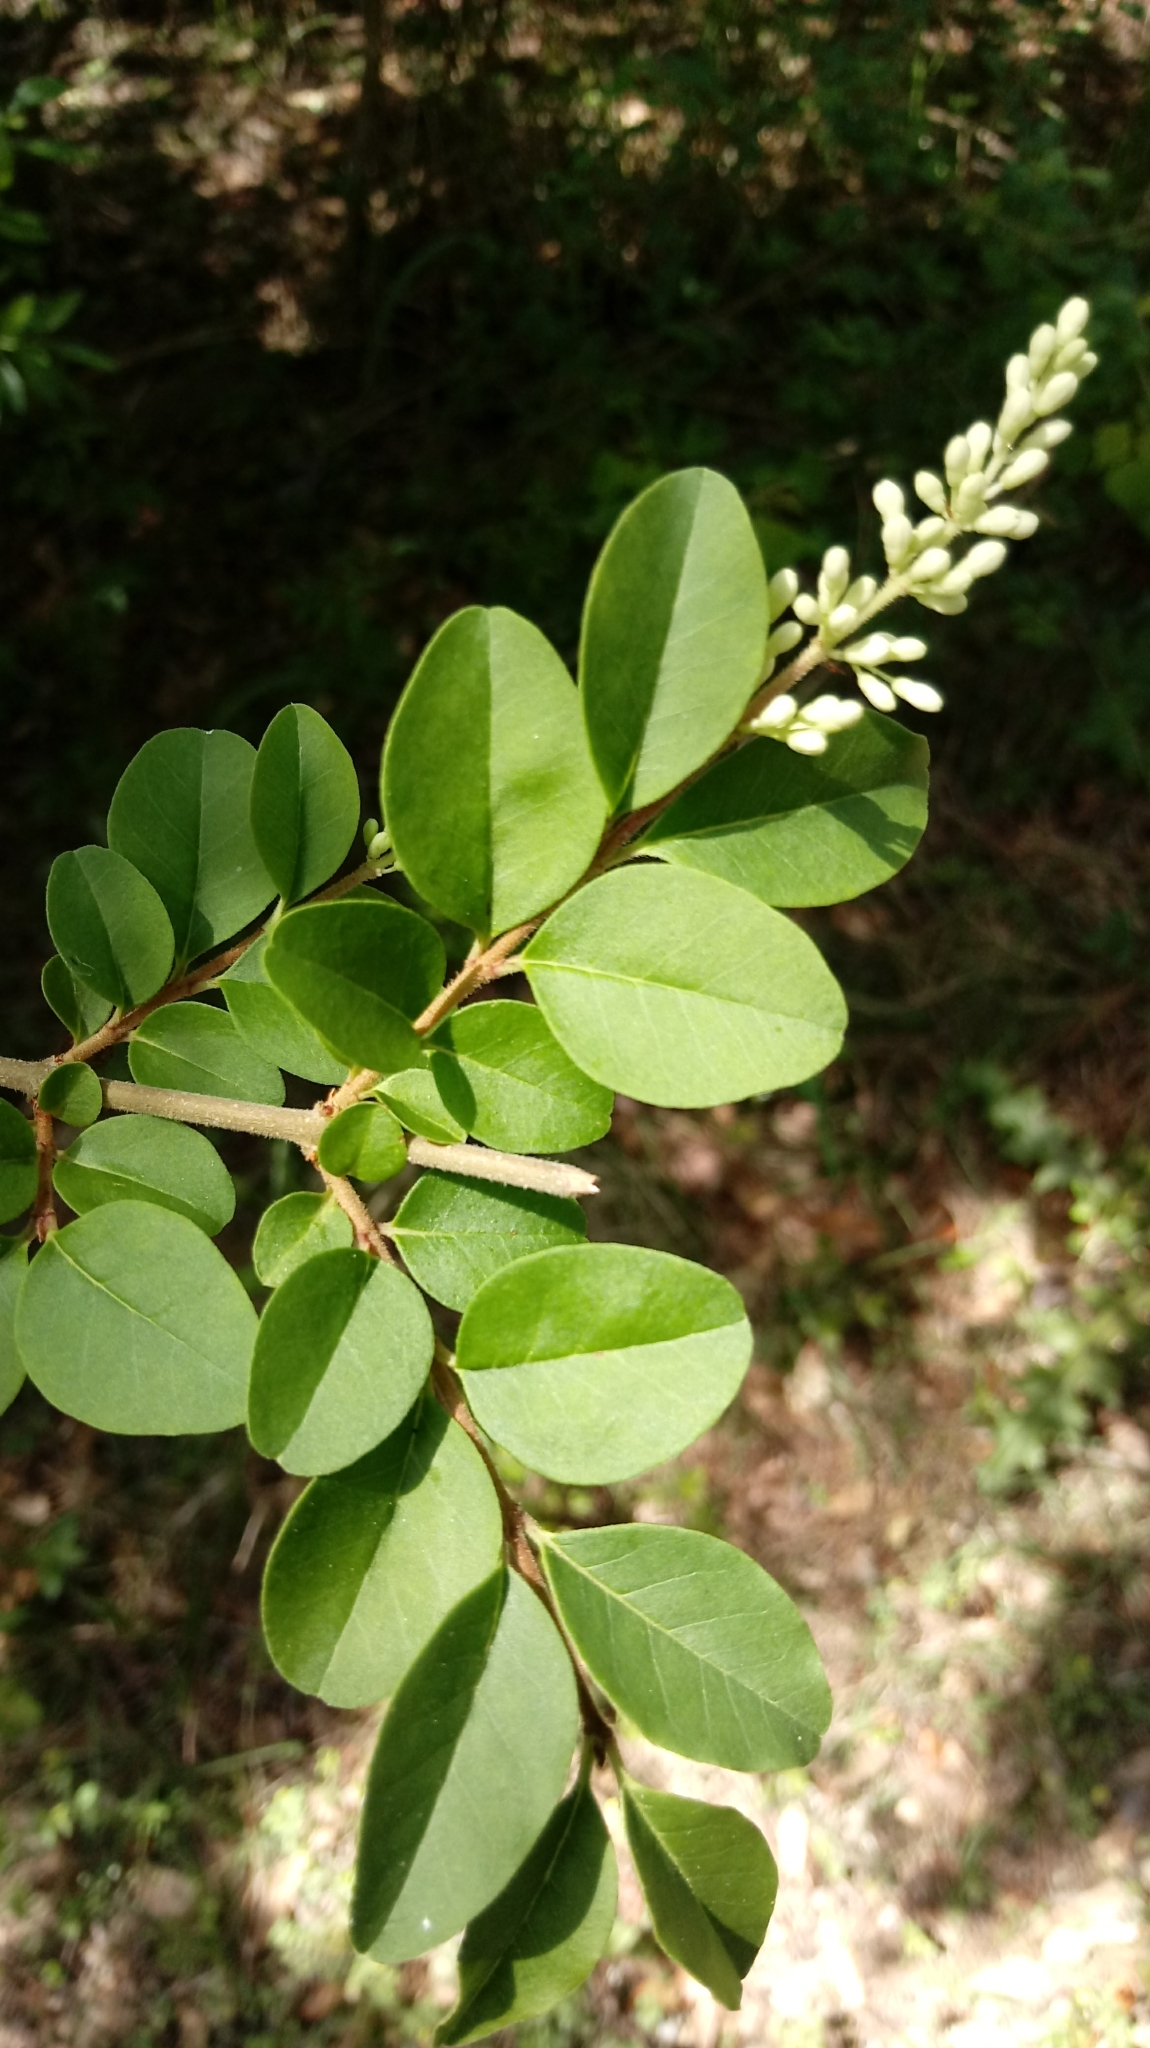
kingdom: Plantae
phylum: Tracheophyta
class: Magnoliopsida
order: Lamiales
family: Oleaceae
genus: Ligustrum
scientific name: Ligustrum sinense
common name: Chinese privet
